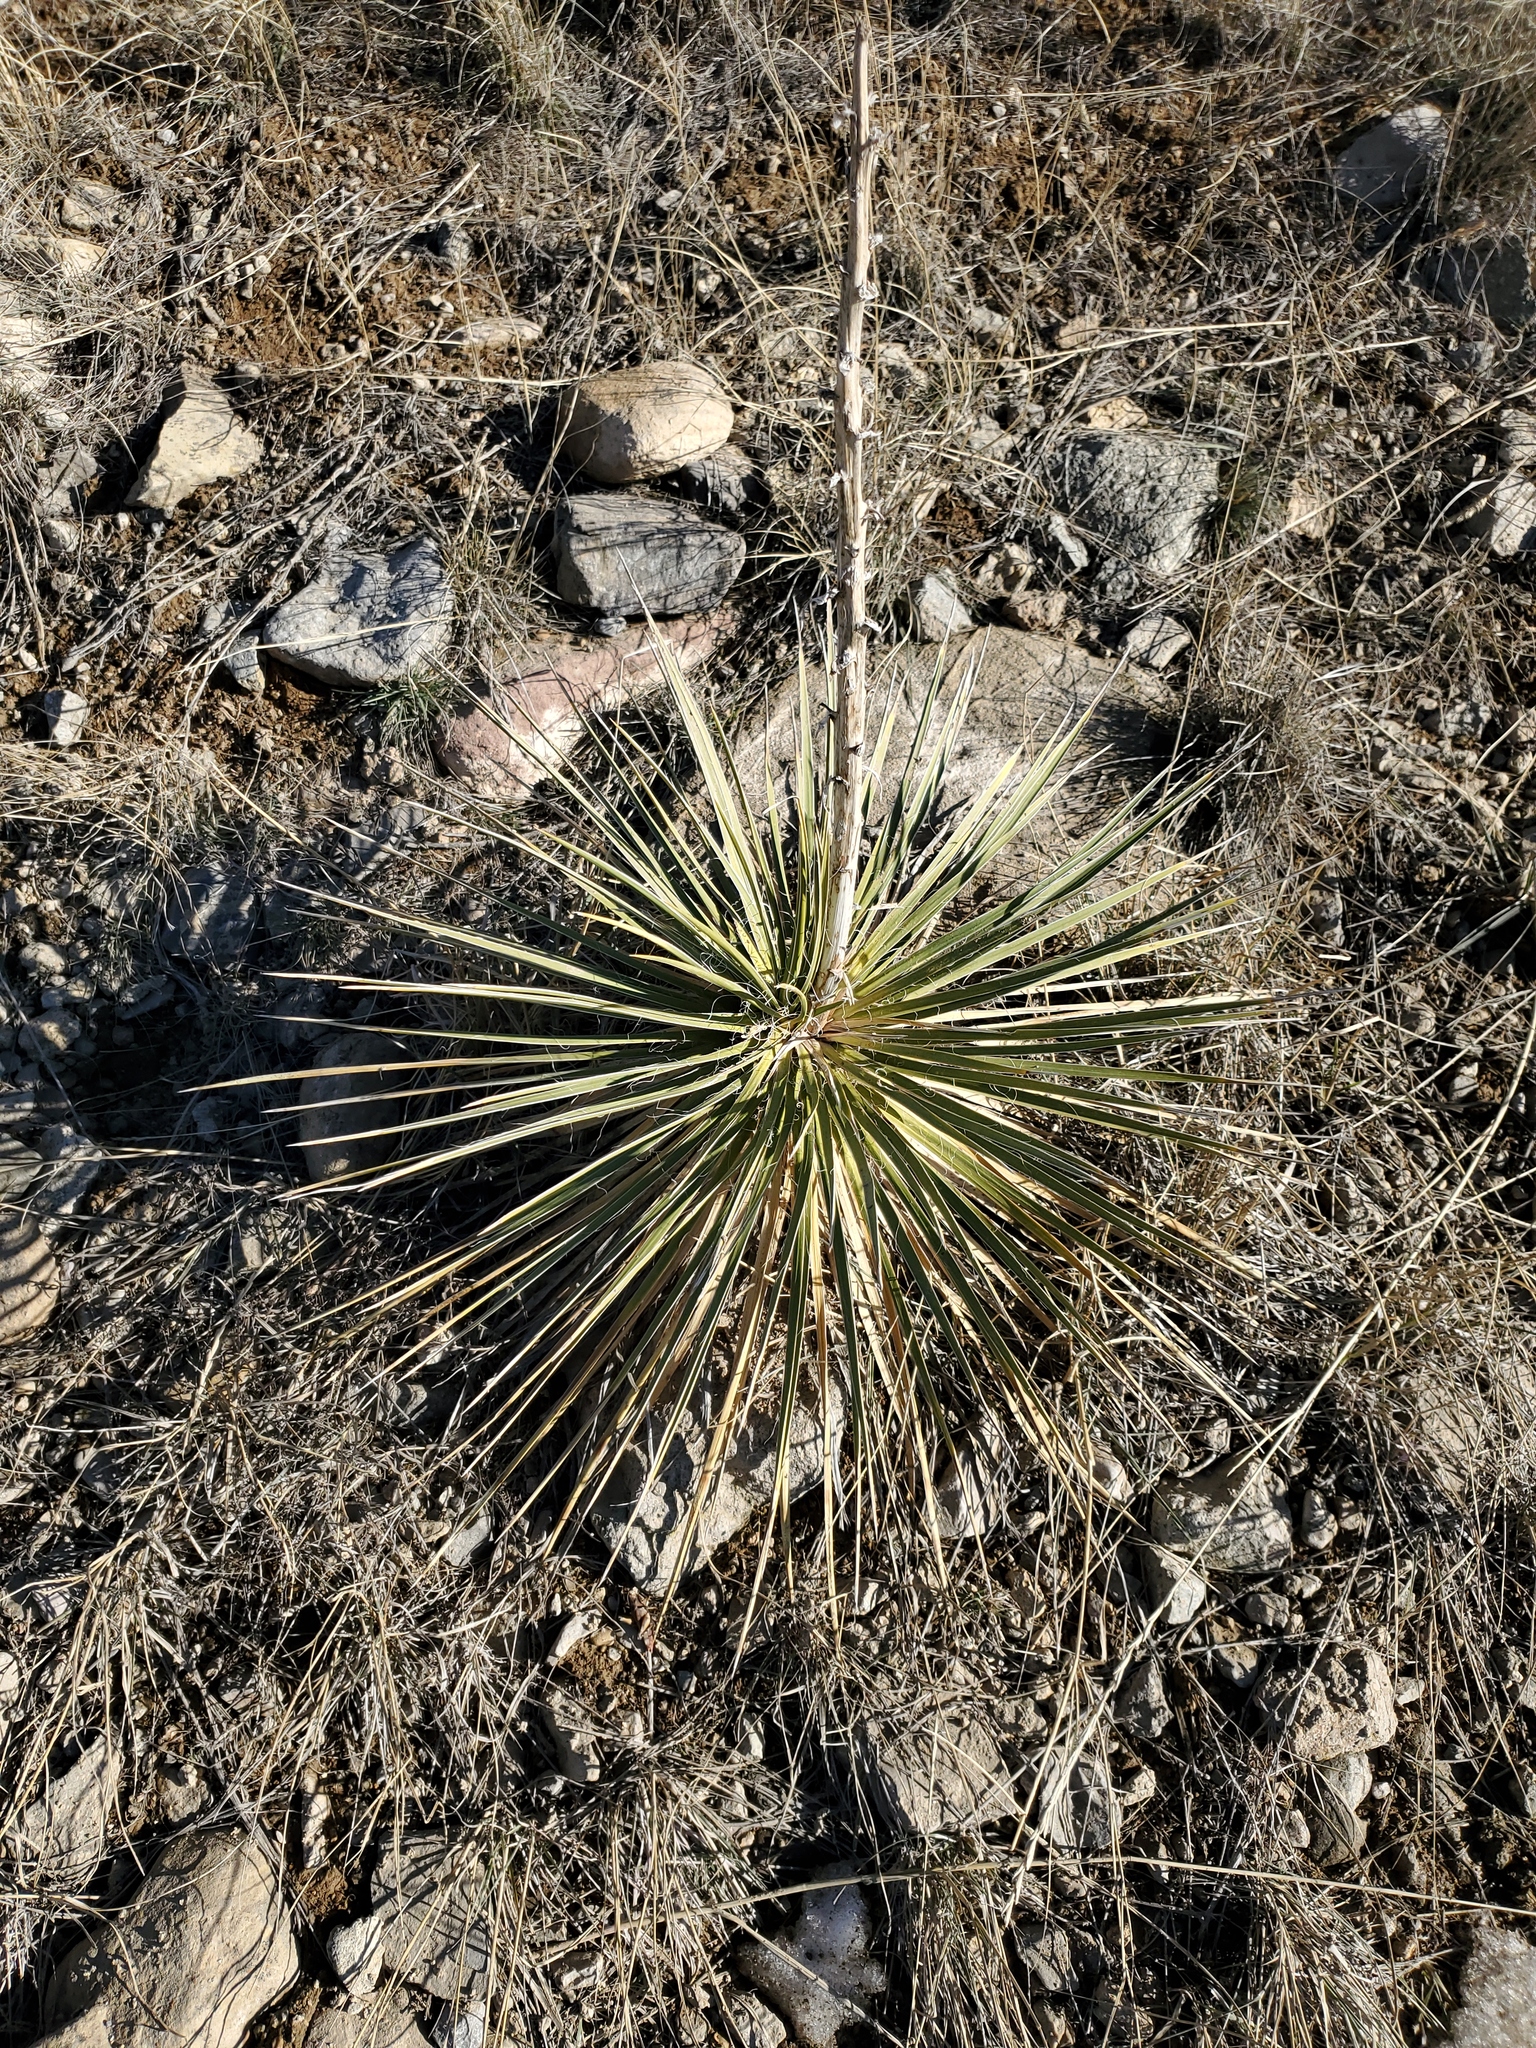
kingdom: Plantae
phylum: Tracheophyta
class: Liliopsida
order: Asparagales
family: Asparagaceae
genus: Yucca
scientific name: Yucca glauca
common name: Great plains yucca
